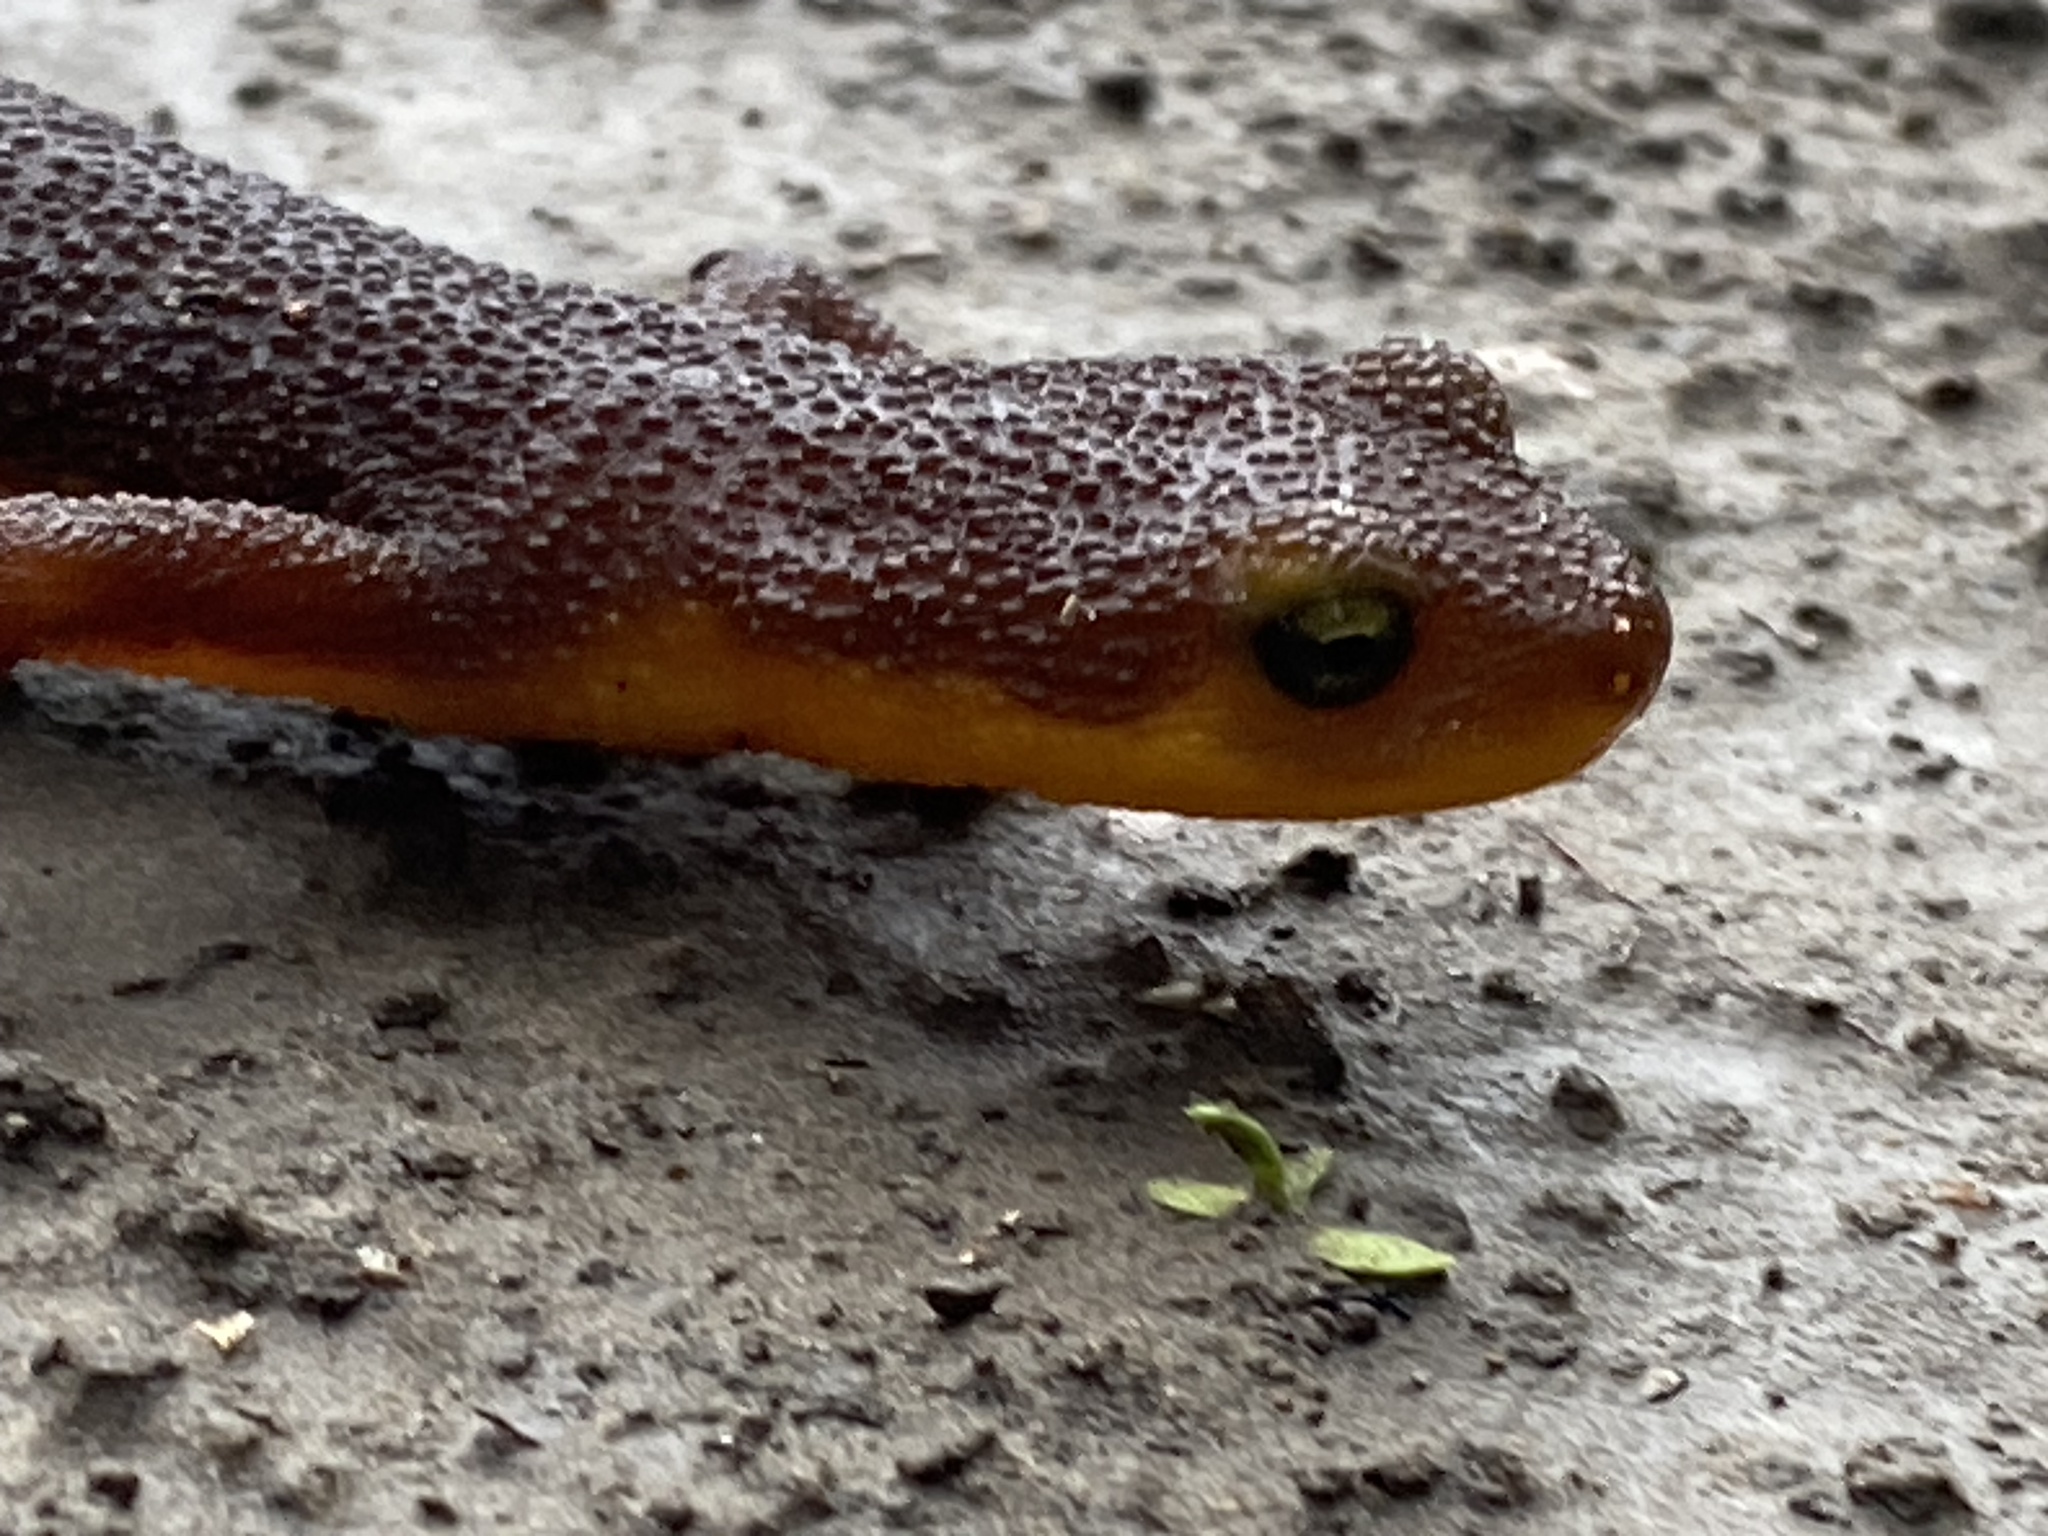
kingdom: Animalia
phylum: Chordata
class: Amphibia
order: Caudata
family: Salamandridae
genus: Taricha
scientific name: Taricha torosa
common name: California newt
